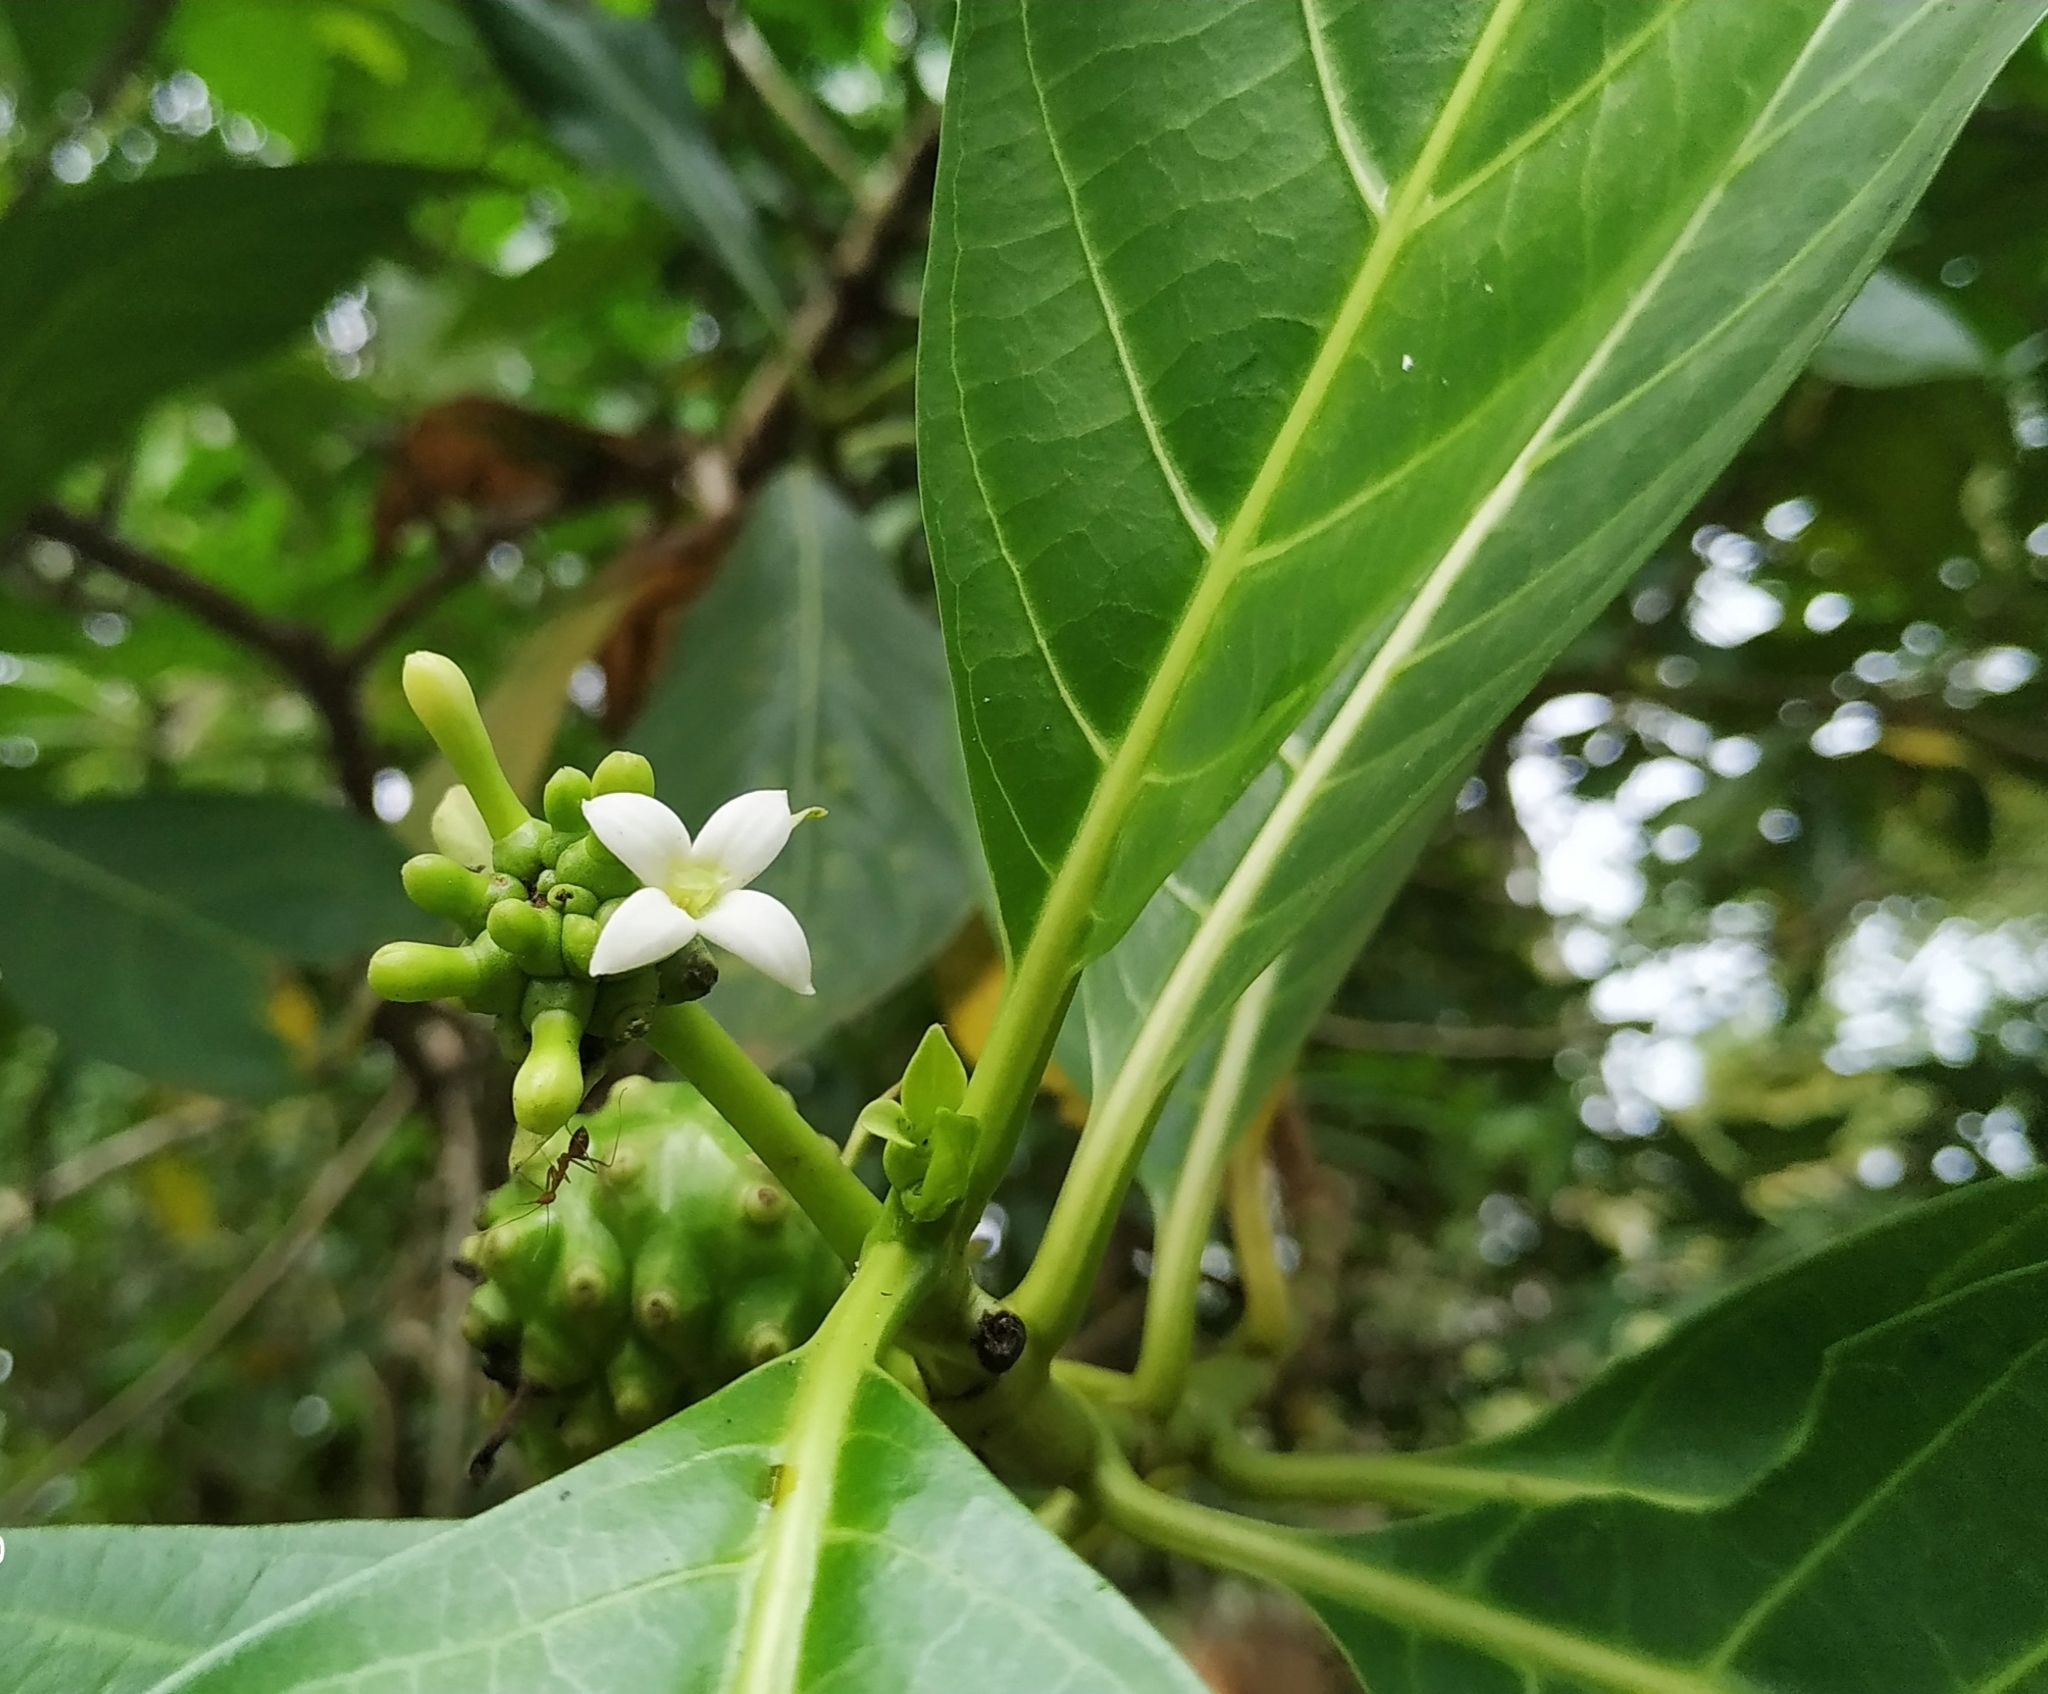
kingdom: Plantae
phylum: Tracheophyta
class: Magnoliopsida
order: Gentianales
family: Rubiaceae
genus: Morinda
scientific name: Morinda citrifolia
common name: Indian-mulberry
